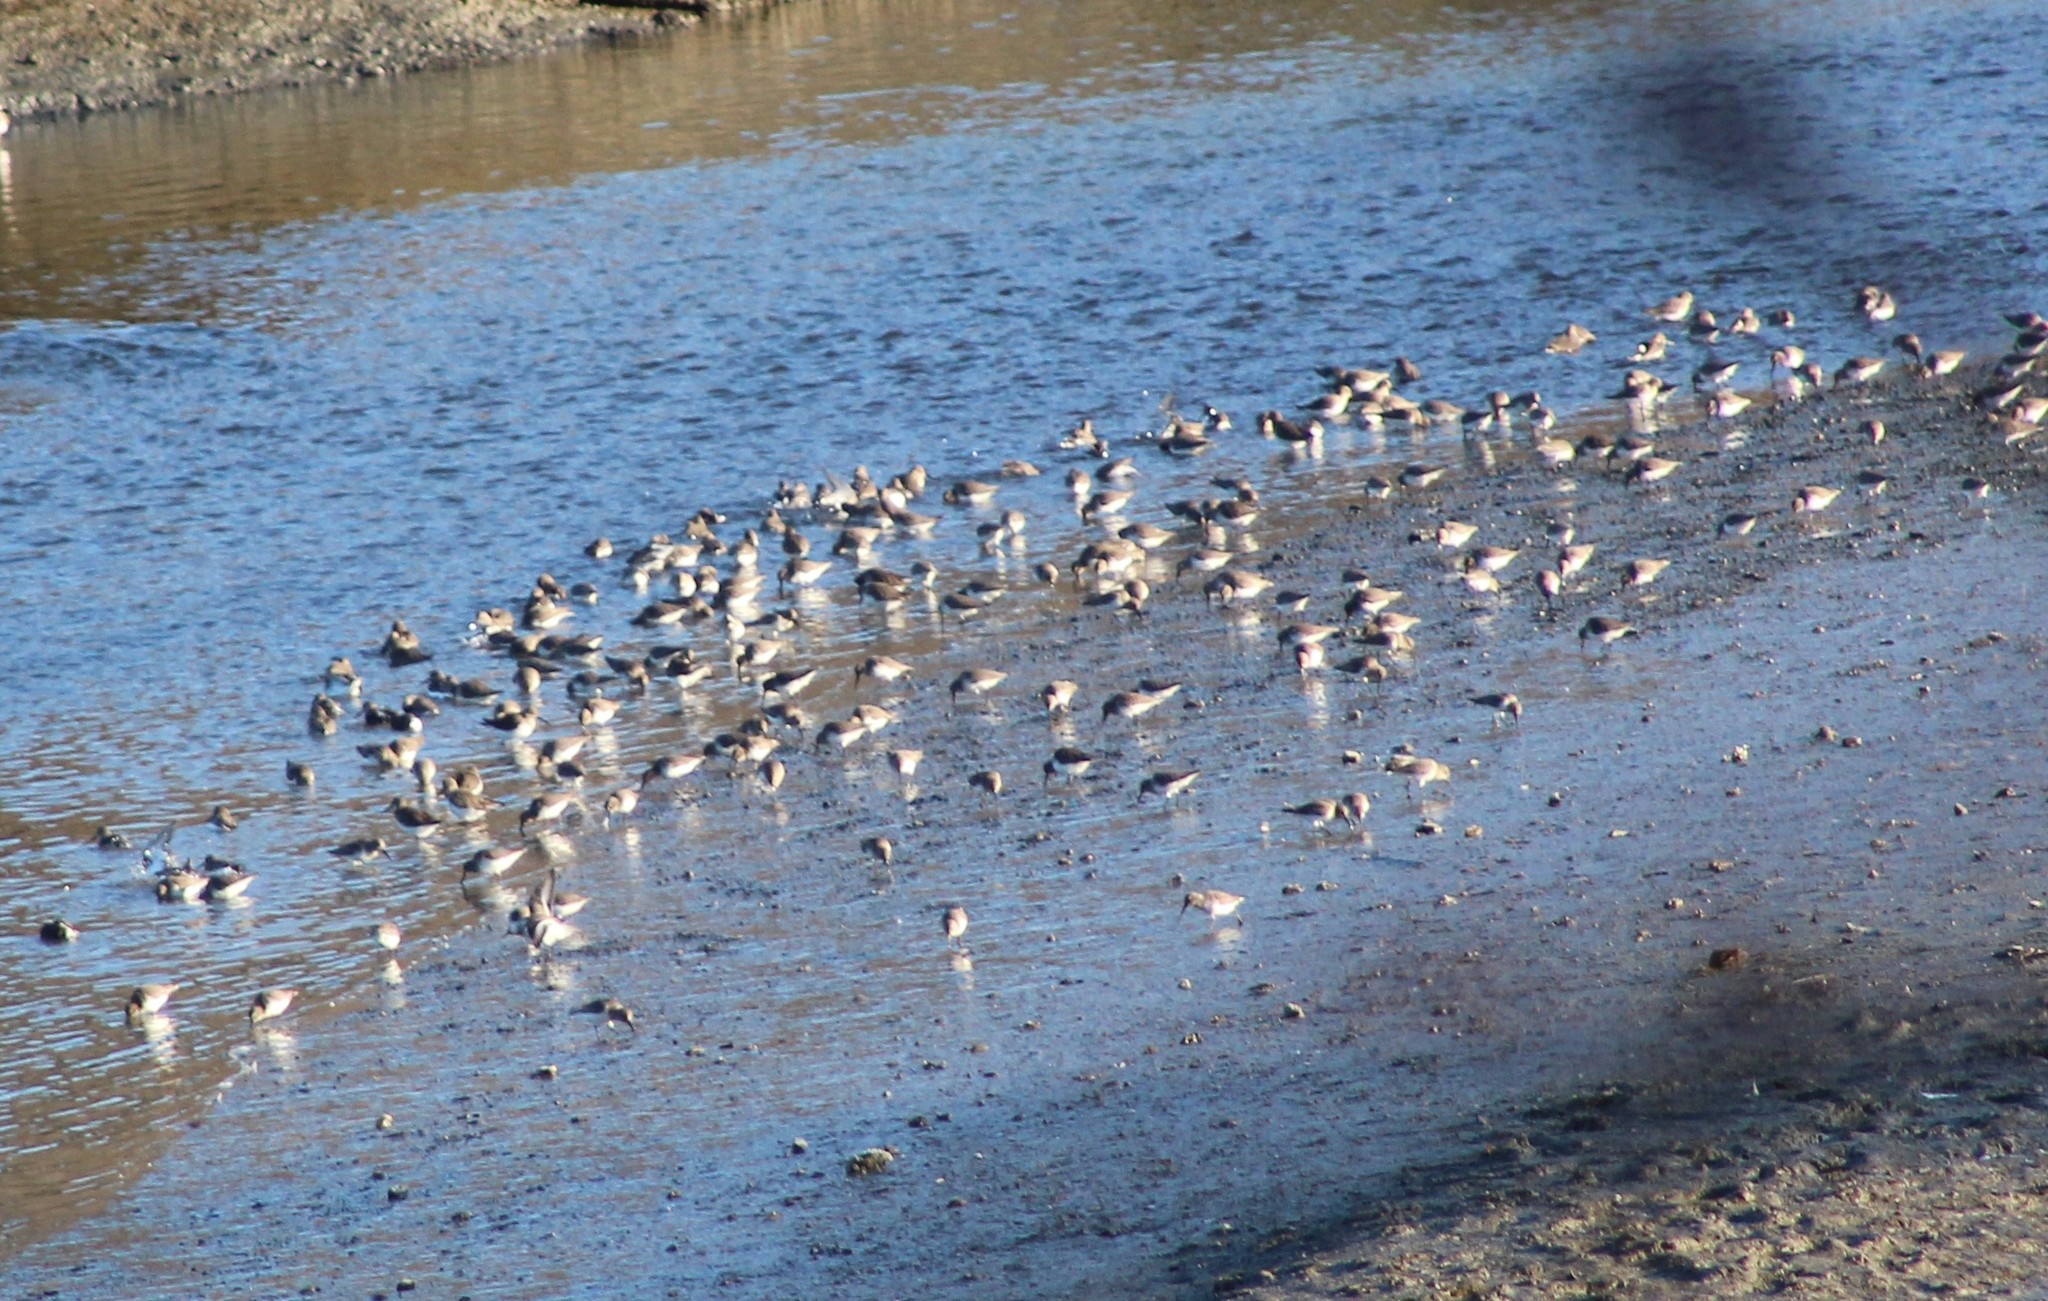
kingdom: Animalia
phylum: Chordata
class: Aves
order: Charadriiformes
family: Scolopacidae
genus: Calidris
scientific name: Calidris alpina
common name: Dunlin
